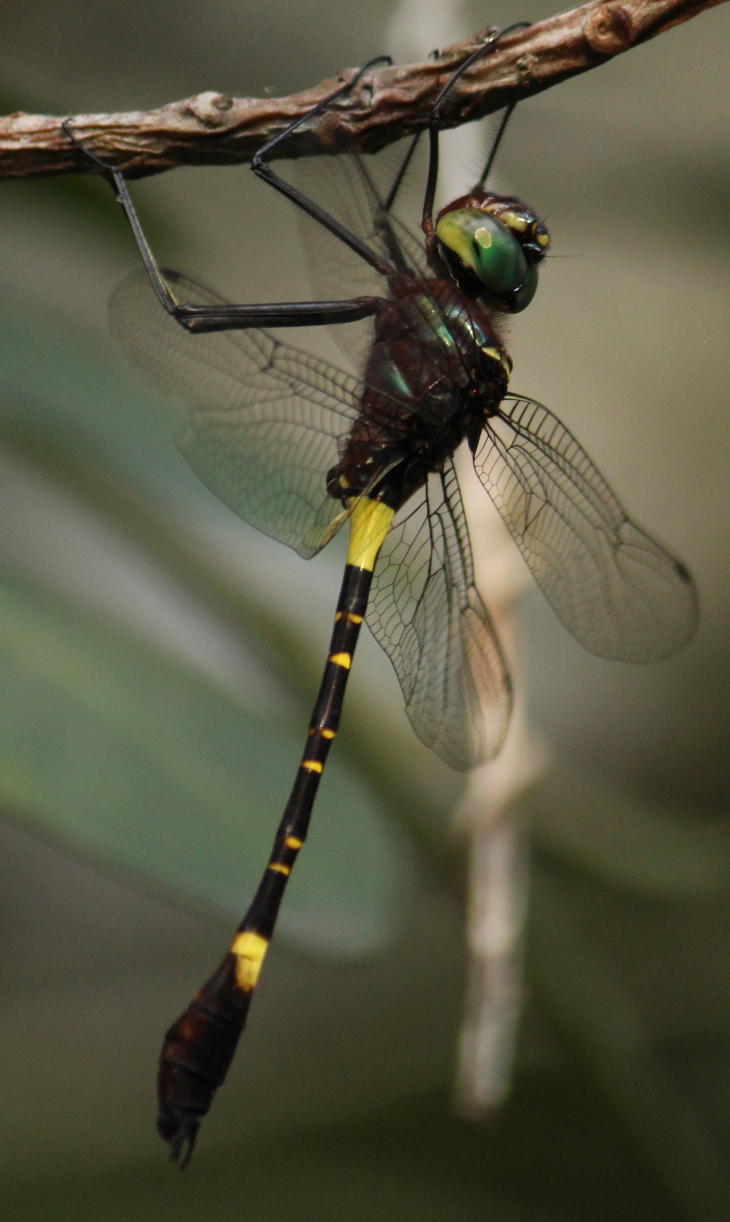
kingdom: Animalia
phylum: Arthropoda
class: Insecta
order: Odonata
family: Macromiidae
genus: Phyllomacromia
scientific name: Phyllomacromia contumax
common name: Two-banded cruiser
